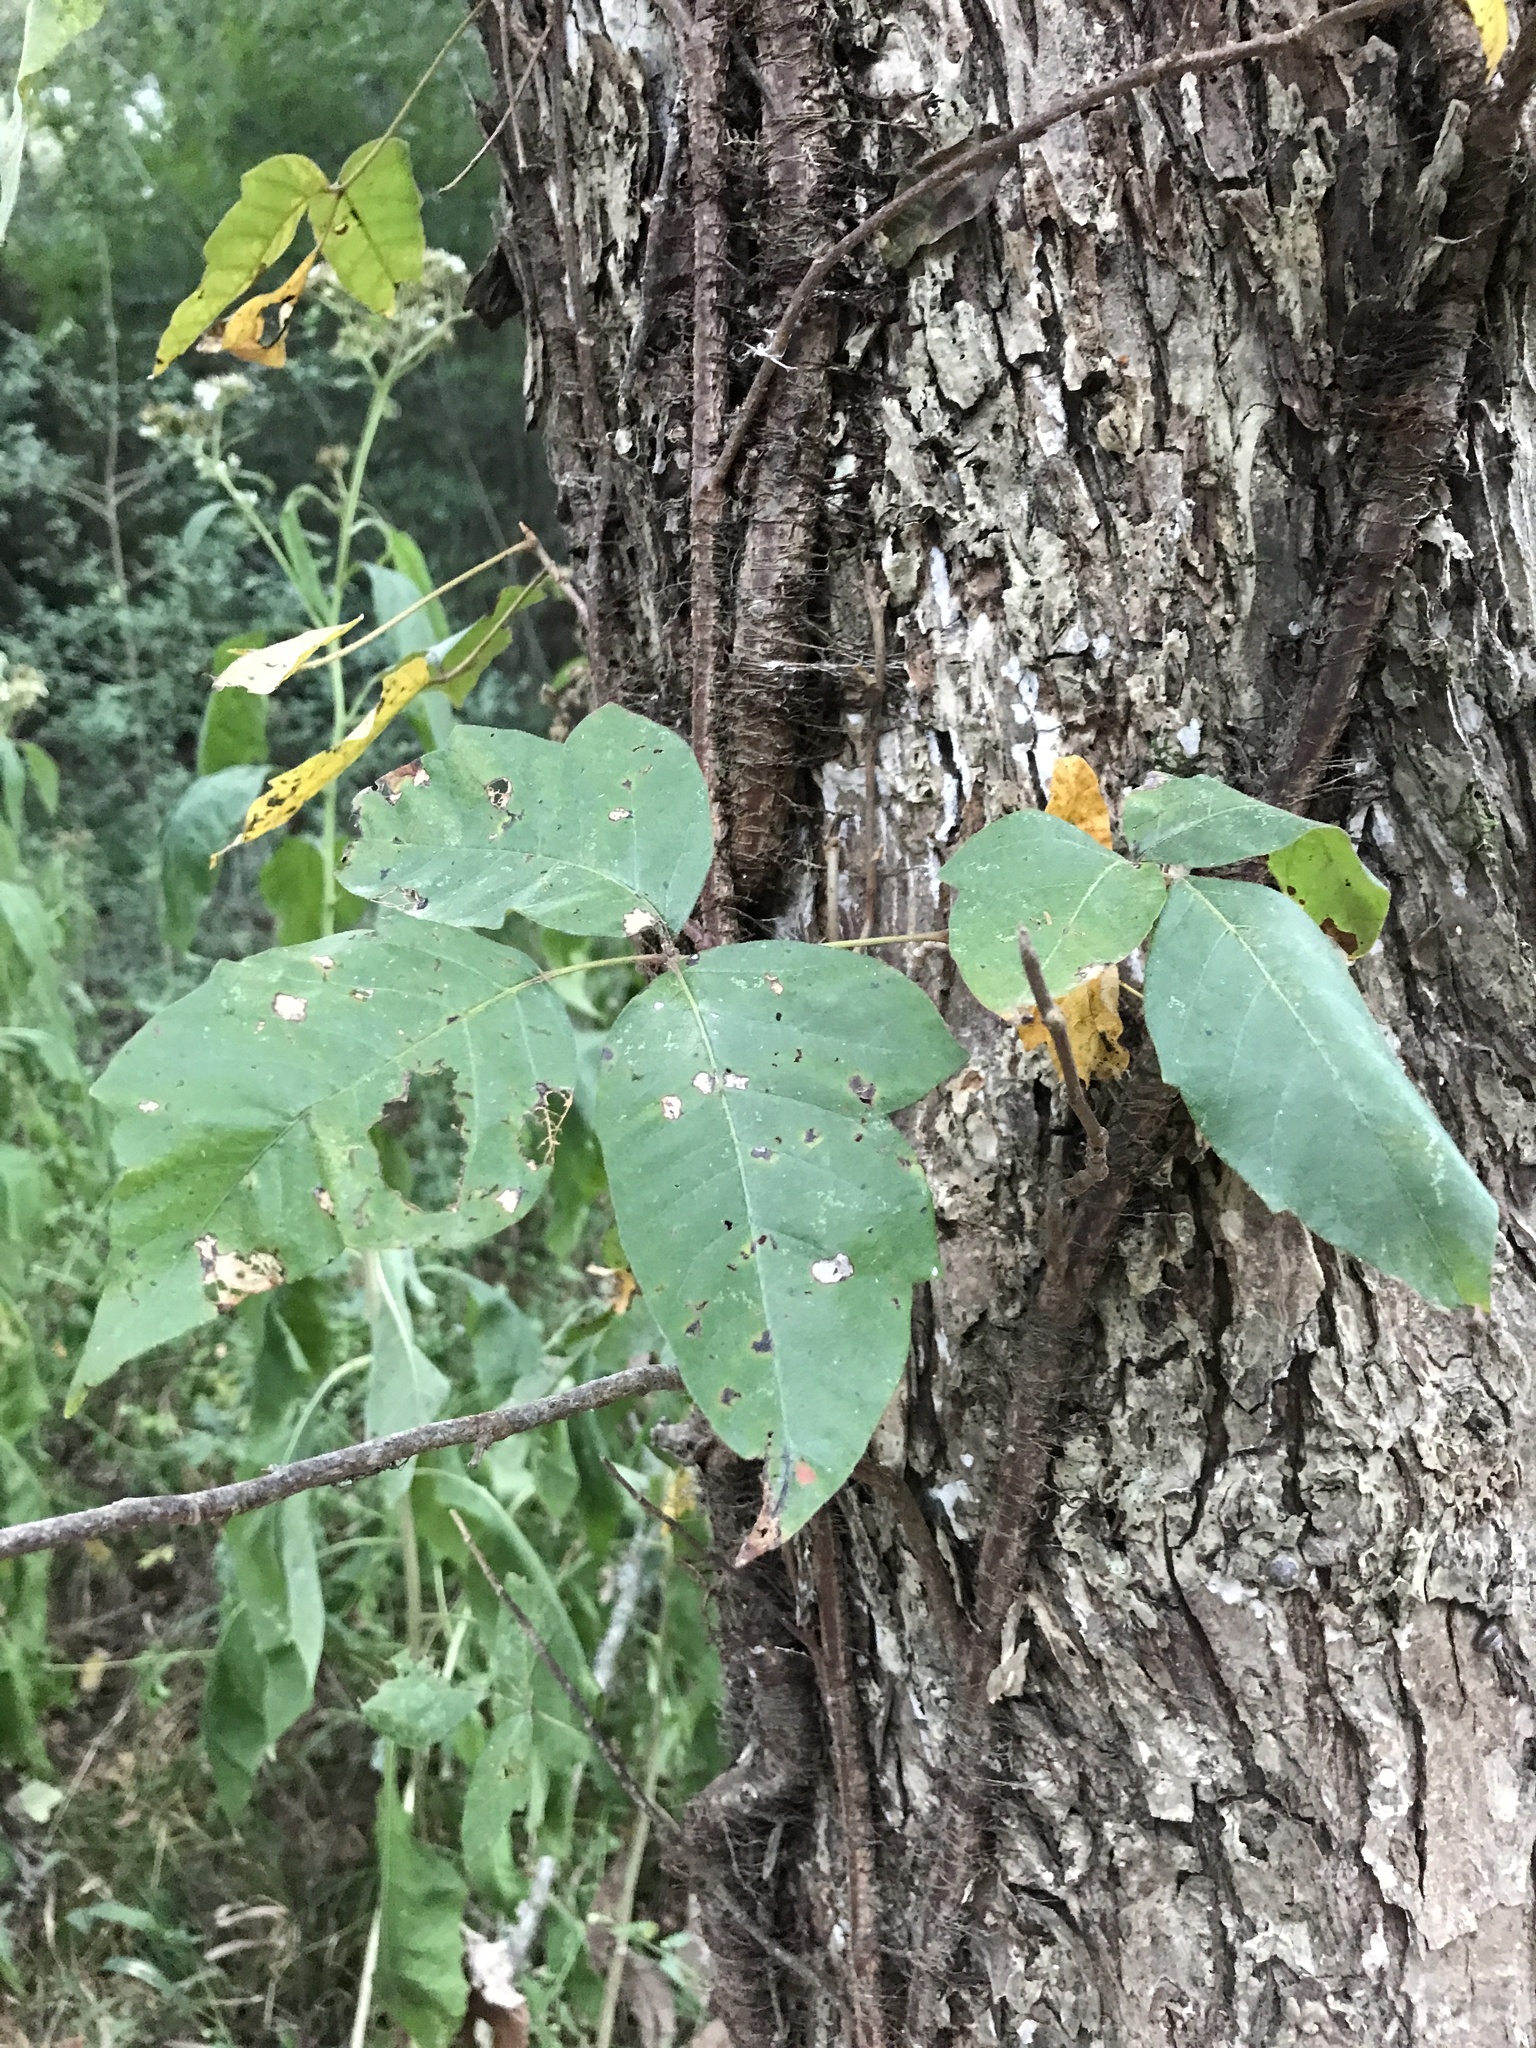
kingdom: Plantae
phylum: Tracheophyta
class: Magnoliopsida
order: Sapindales
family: Anacardiaceae
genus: Toxicodendron
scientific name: Toxicodendron radicans
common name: Poison ivy
